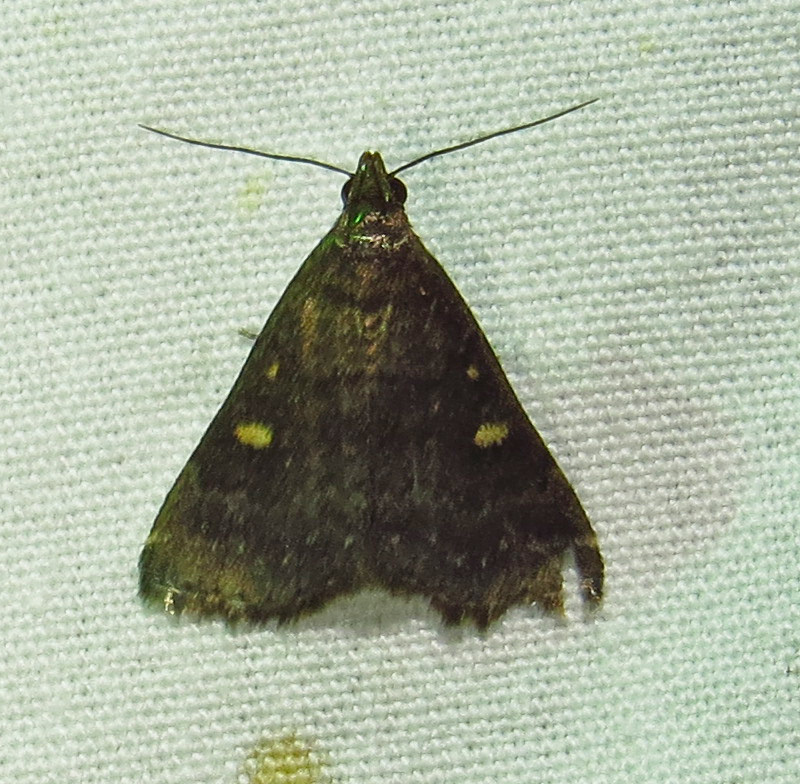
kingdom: Animalia
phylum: Arthropoda
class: Insecta
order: Lepidoptera
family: Erebidae
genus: Tetanolita
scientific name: Tetanolita mynesalis
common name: Smoky tetanolita moth
